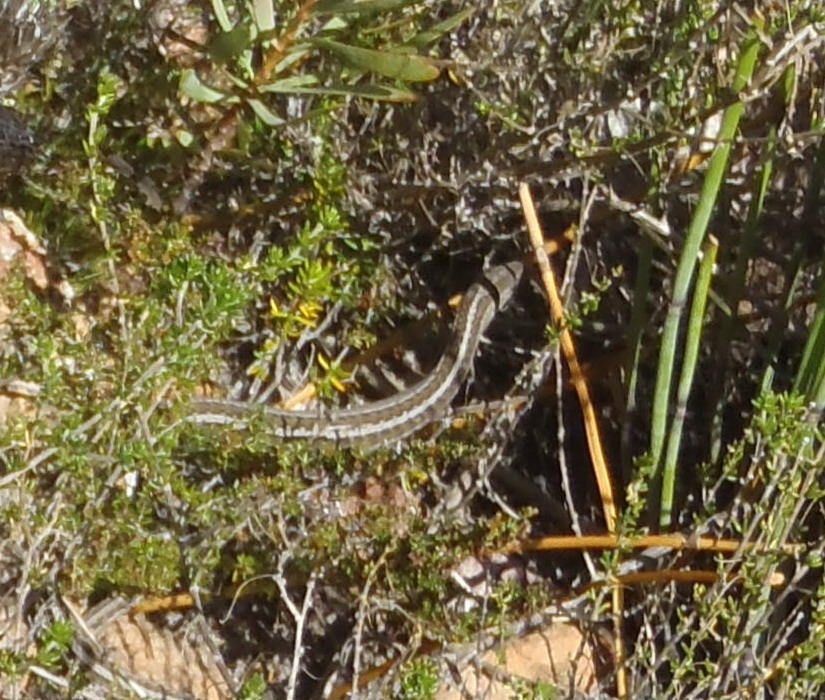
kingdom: Animalia
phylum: Chordata
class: Squamata
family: Cordylidae
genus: Chamaesaura
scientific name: Chamaesaura anguina
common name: Cape snake lizard
